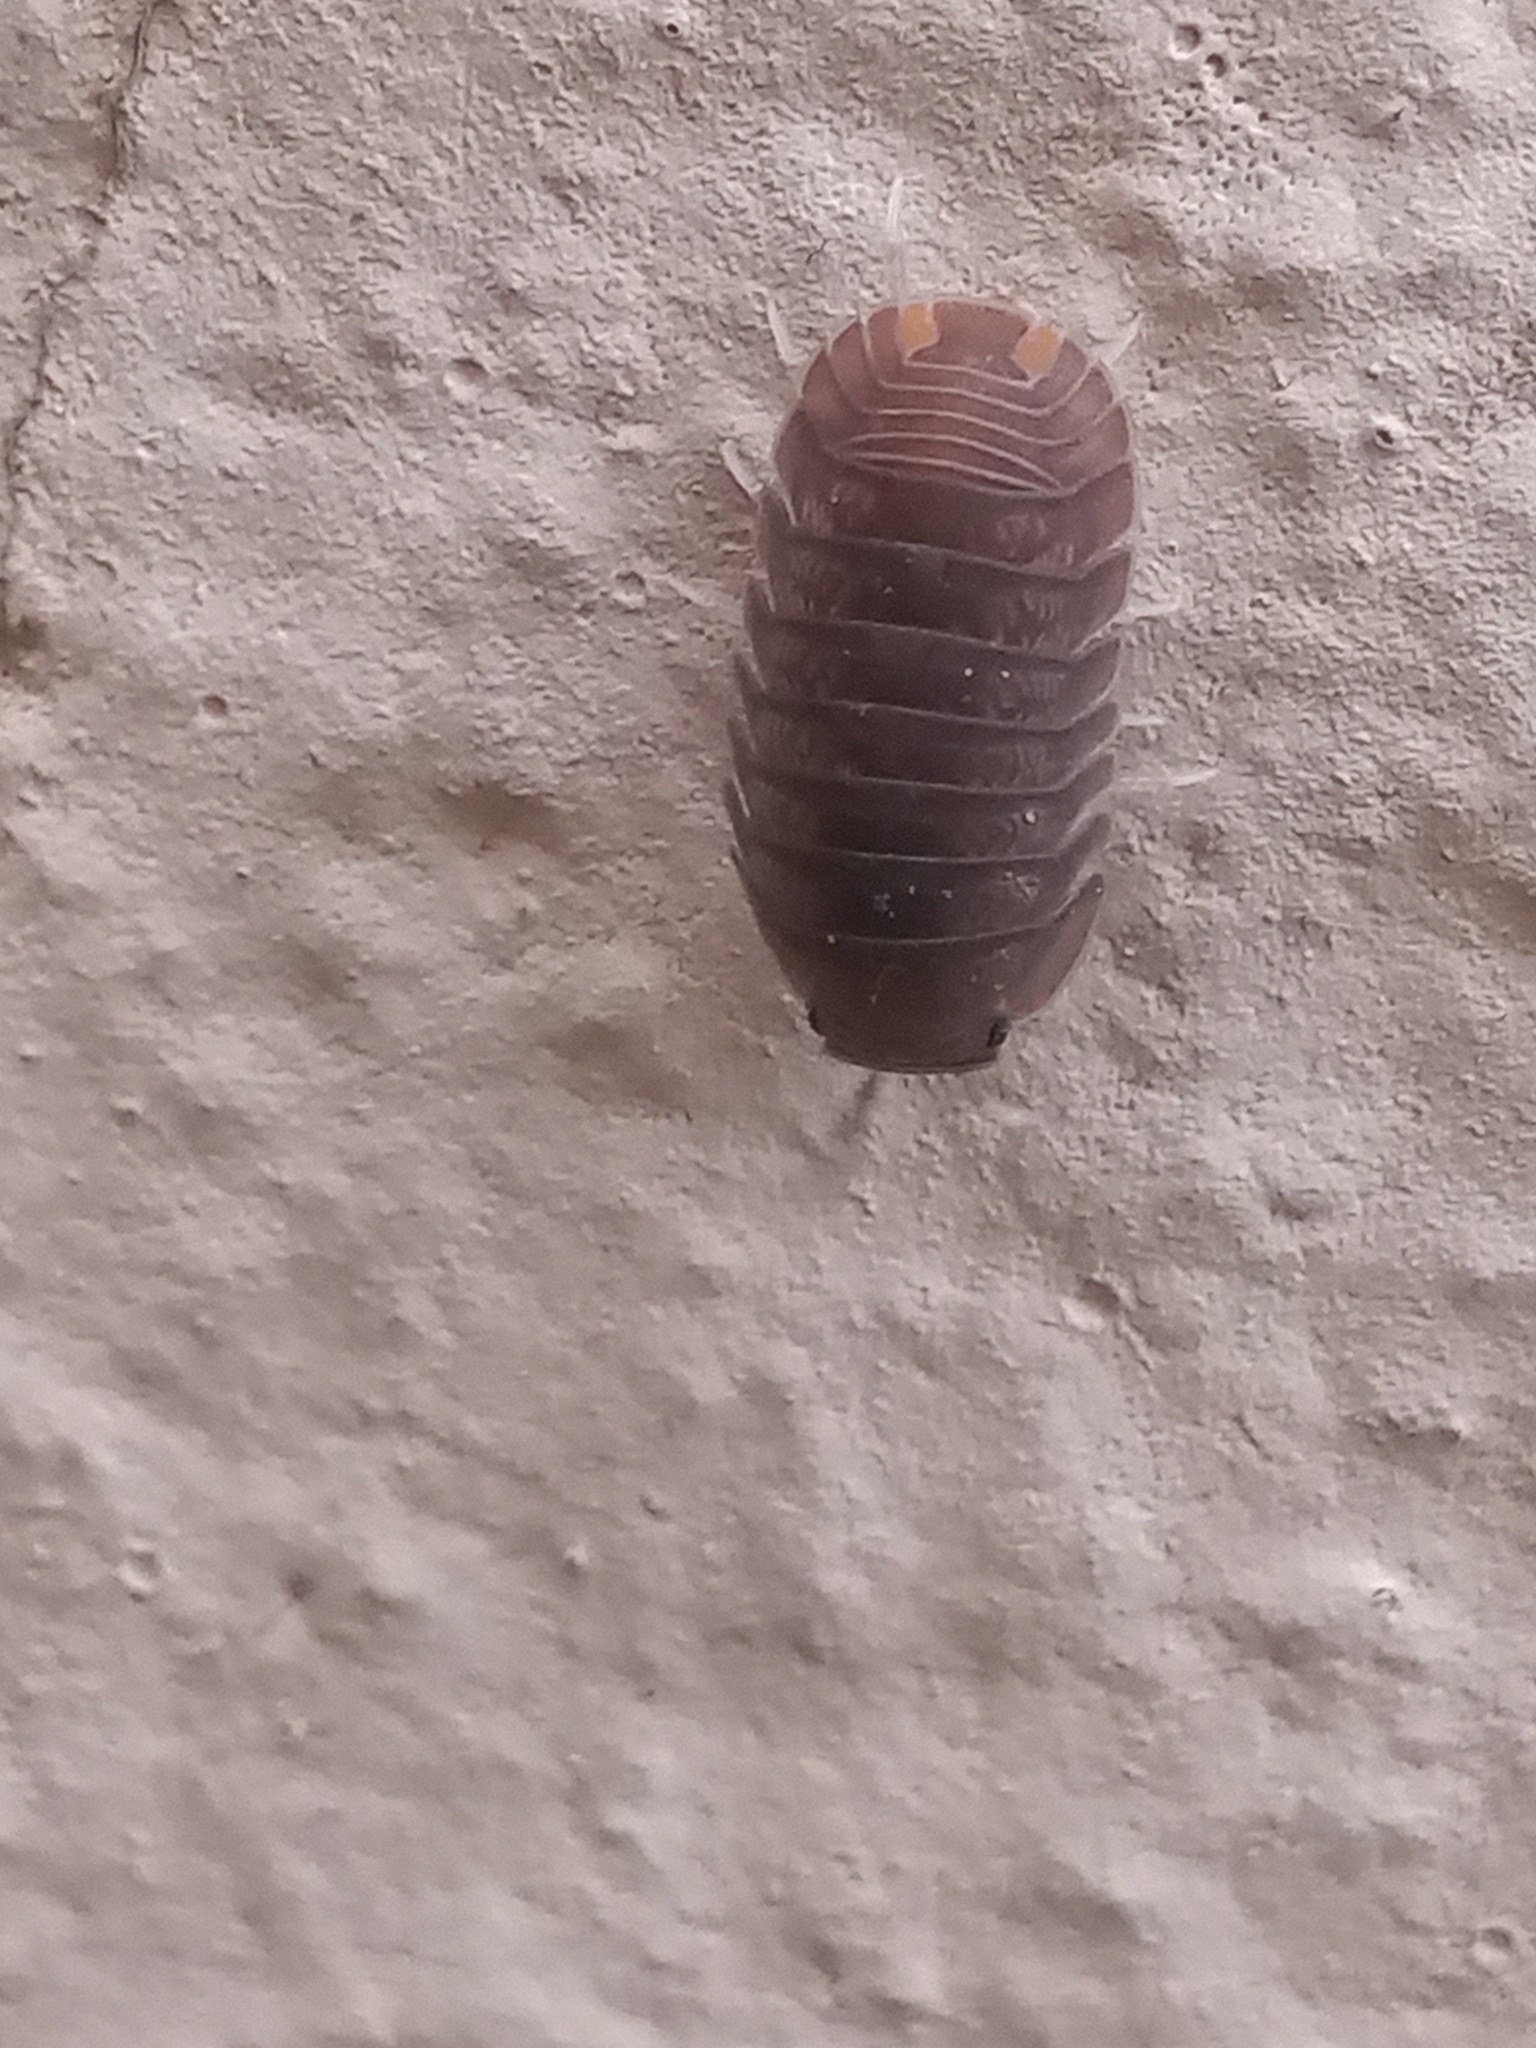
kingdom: Animalia
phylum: Arthropoda
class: Malacostraca
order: Isopoda
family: Armadillidae
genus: Cubaris
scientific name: Cubaris murina
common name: Pillbug
